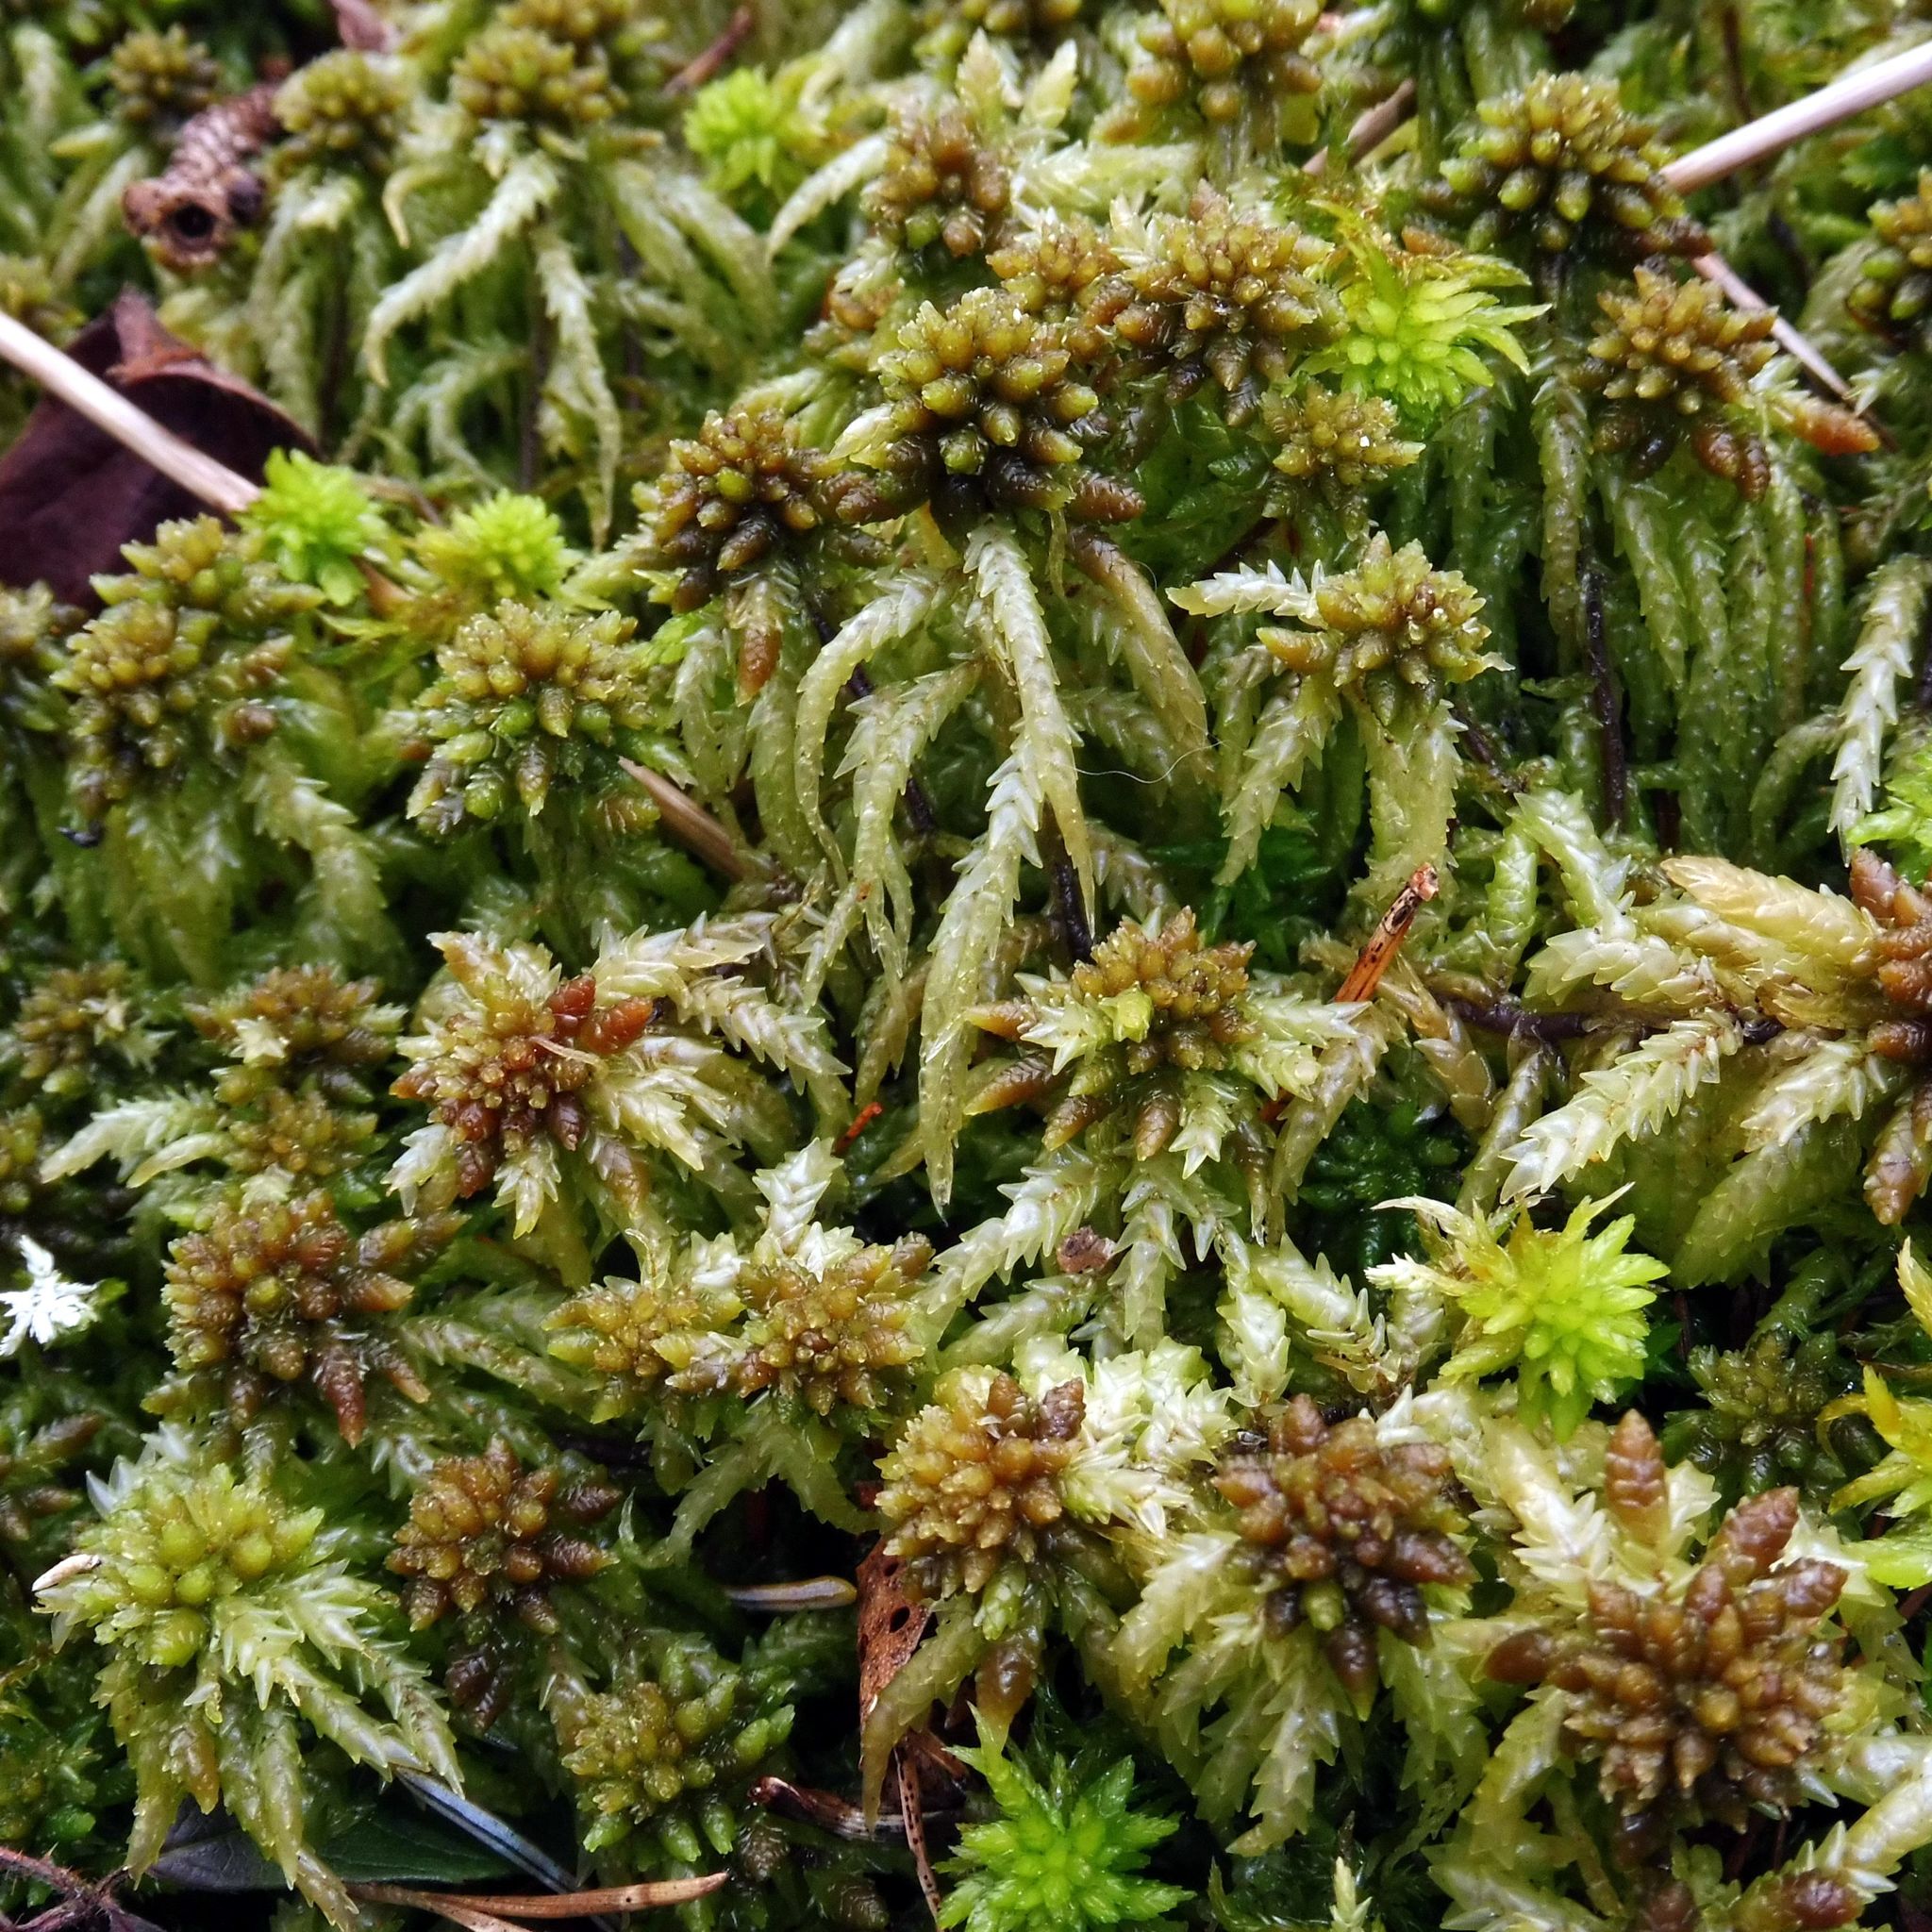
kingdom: Plantae
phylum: Bryophyta
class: Sphagnopsida
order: Sphagnales
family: Sphagnaceae
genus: Sphagnum
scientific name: Sphagnum palustre
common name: Blunt-leaved bog-moss
